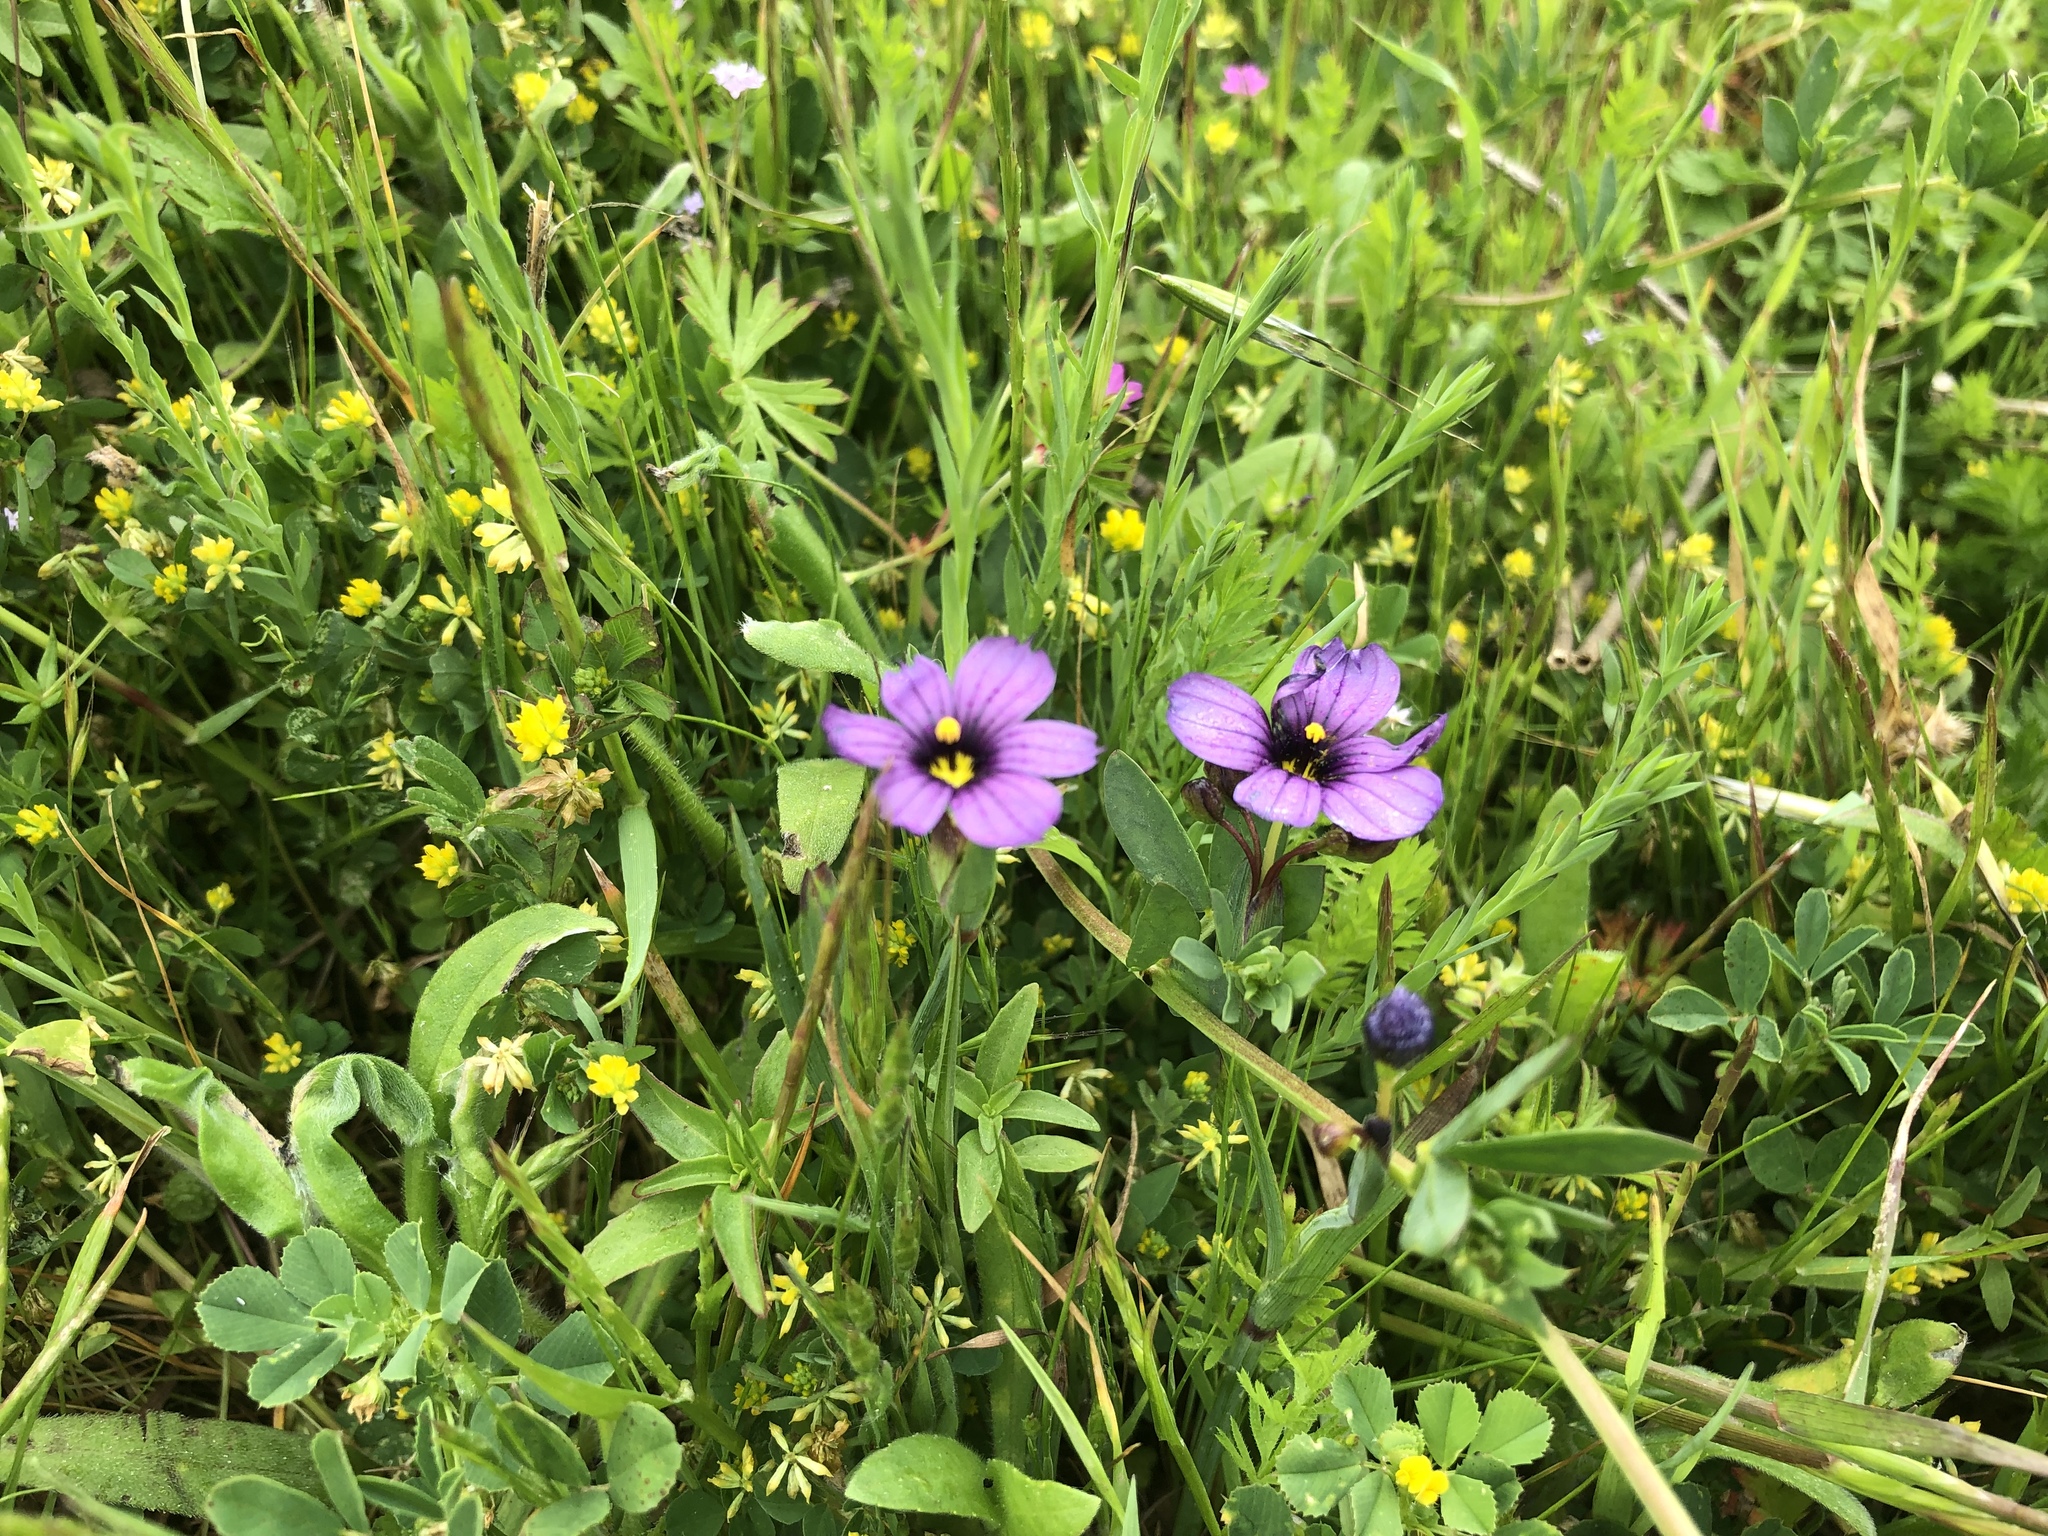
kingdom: Plantae
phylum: Tracheophyta
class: Liliopsida
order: Asparagales
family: Iridaceae
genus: Sisyrinchium
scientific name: Sisyrinchium bellum
